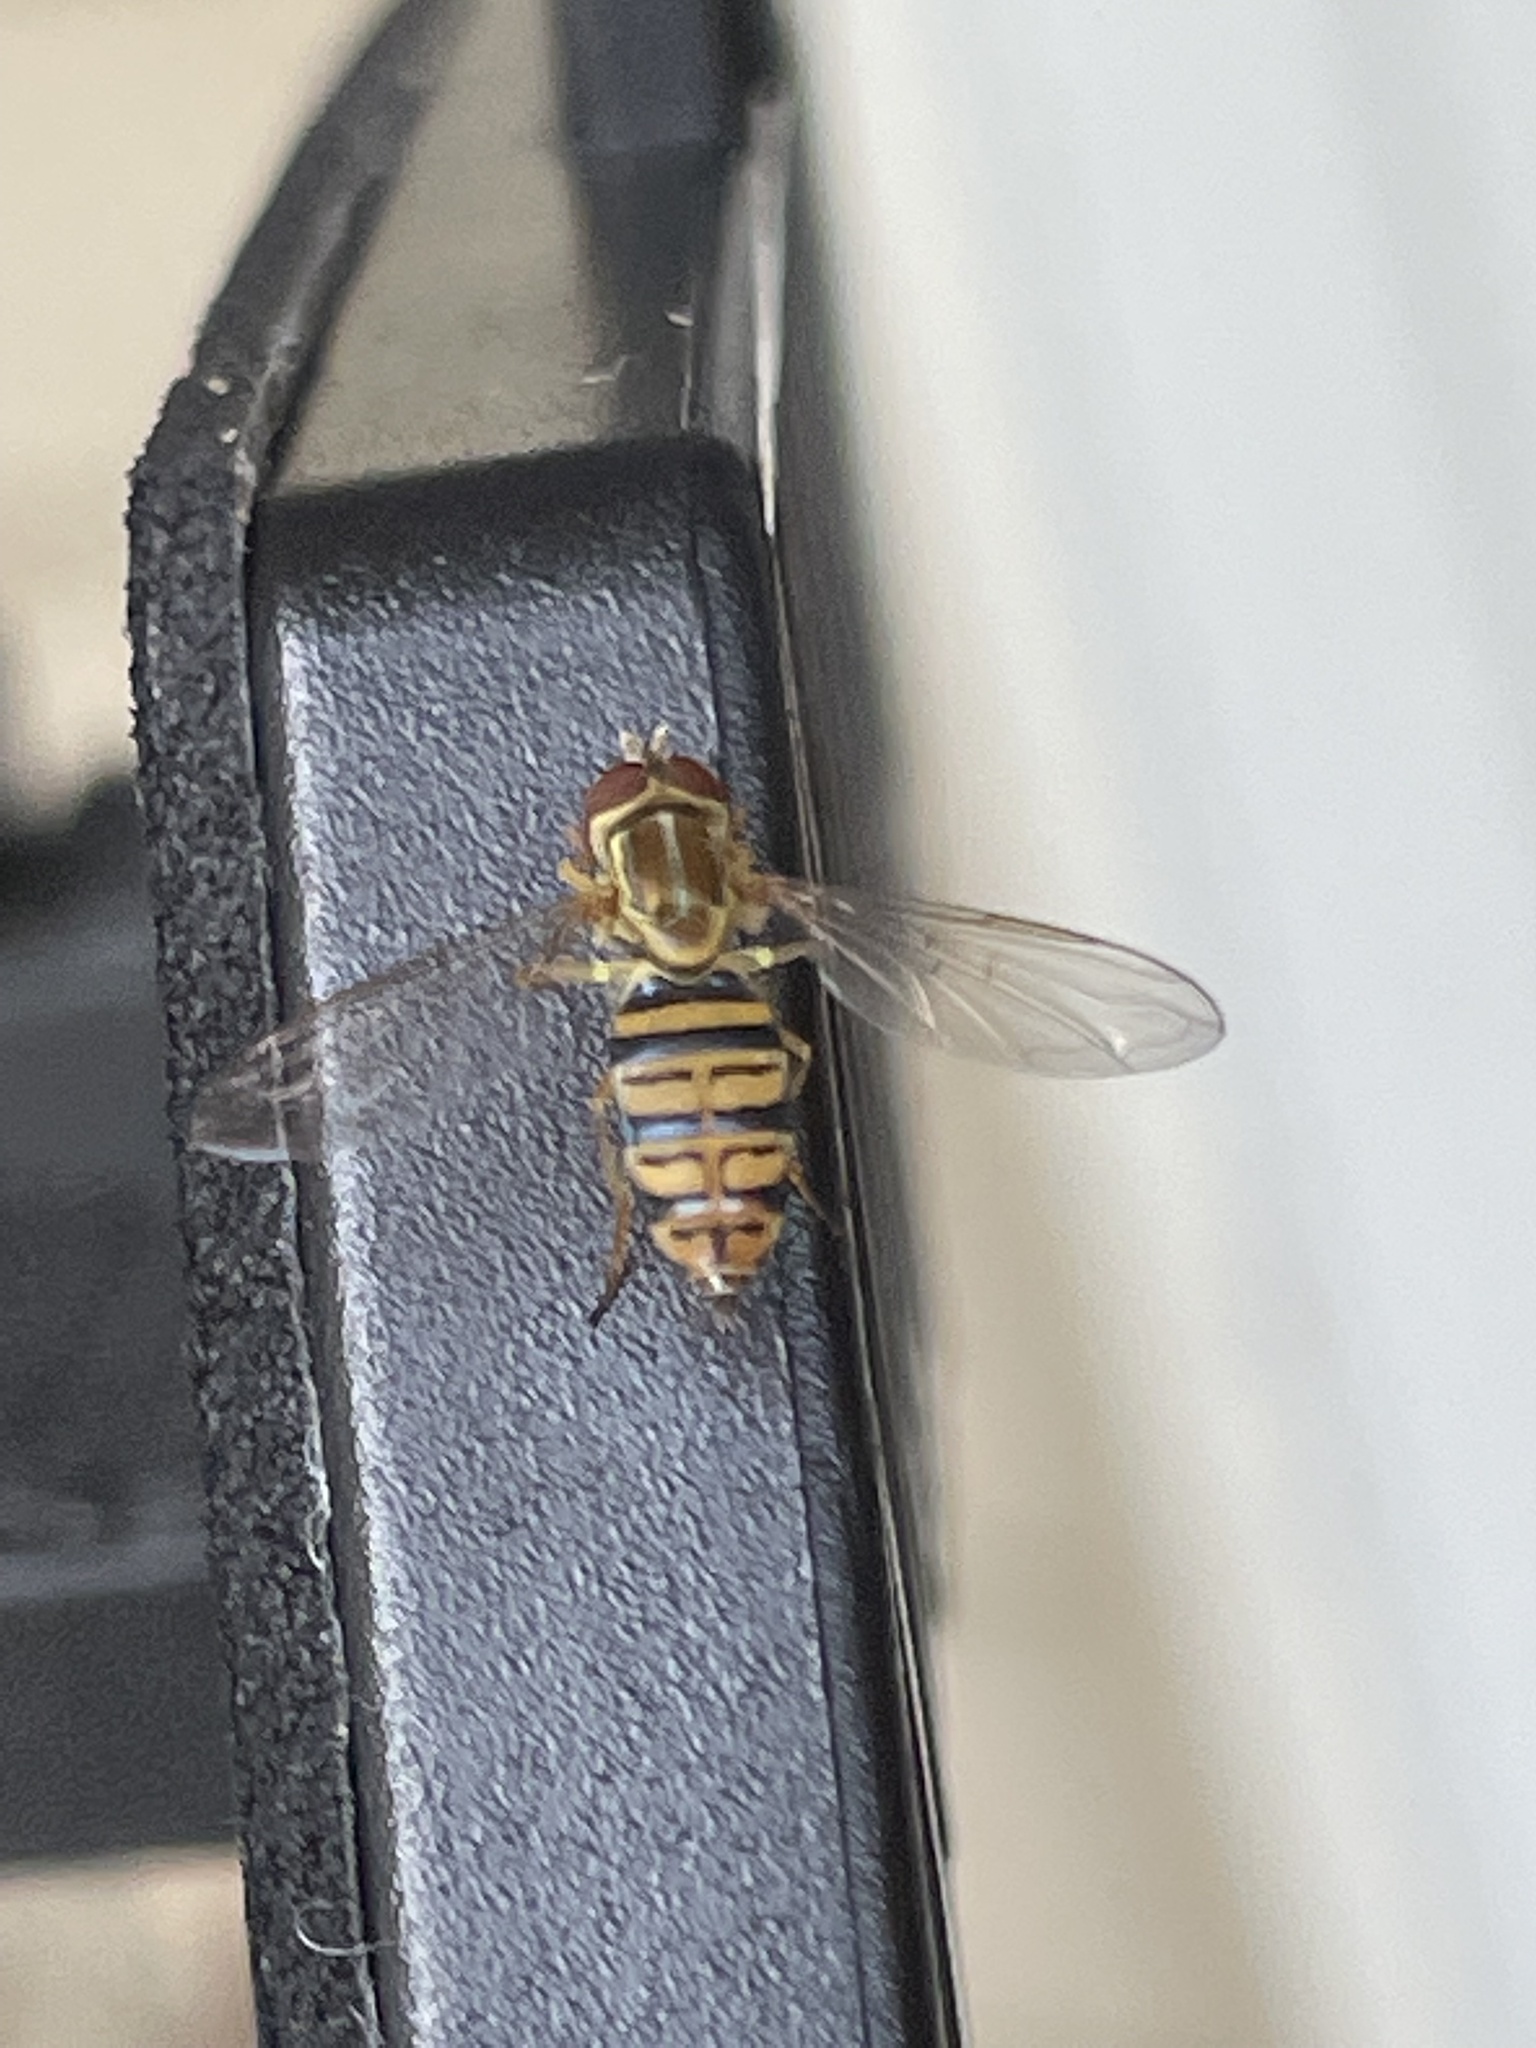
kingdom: Animalia
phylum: Arthropoda
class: Insecta
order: Diptera
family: Syrphidae
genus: Toxomerus
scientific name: Toxomerus politus
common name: Maize calligrapher
